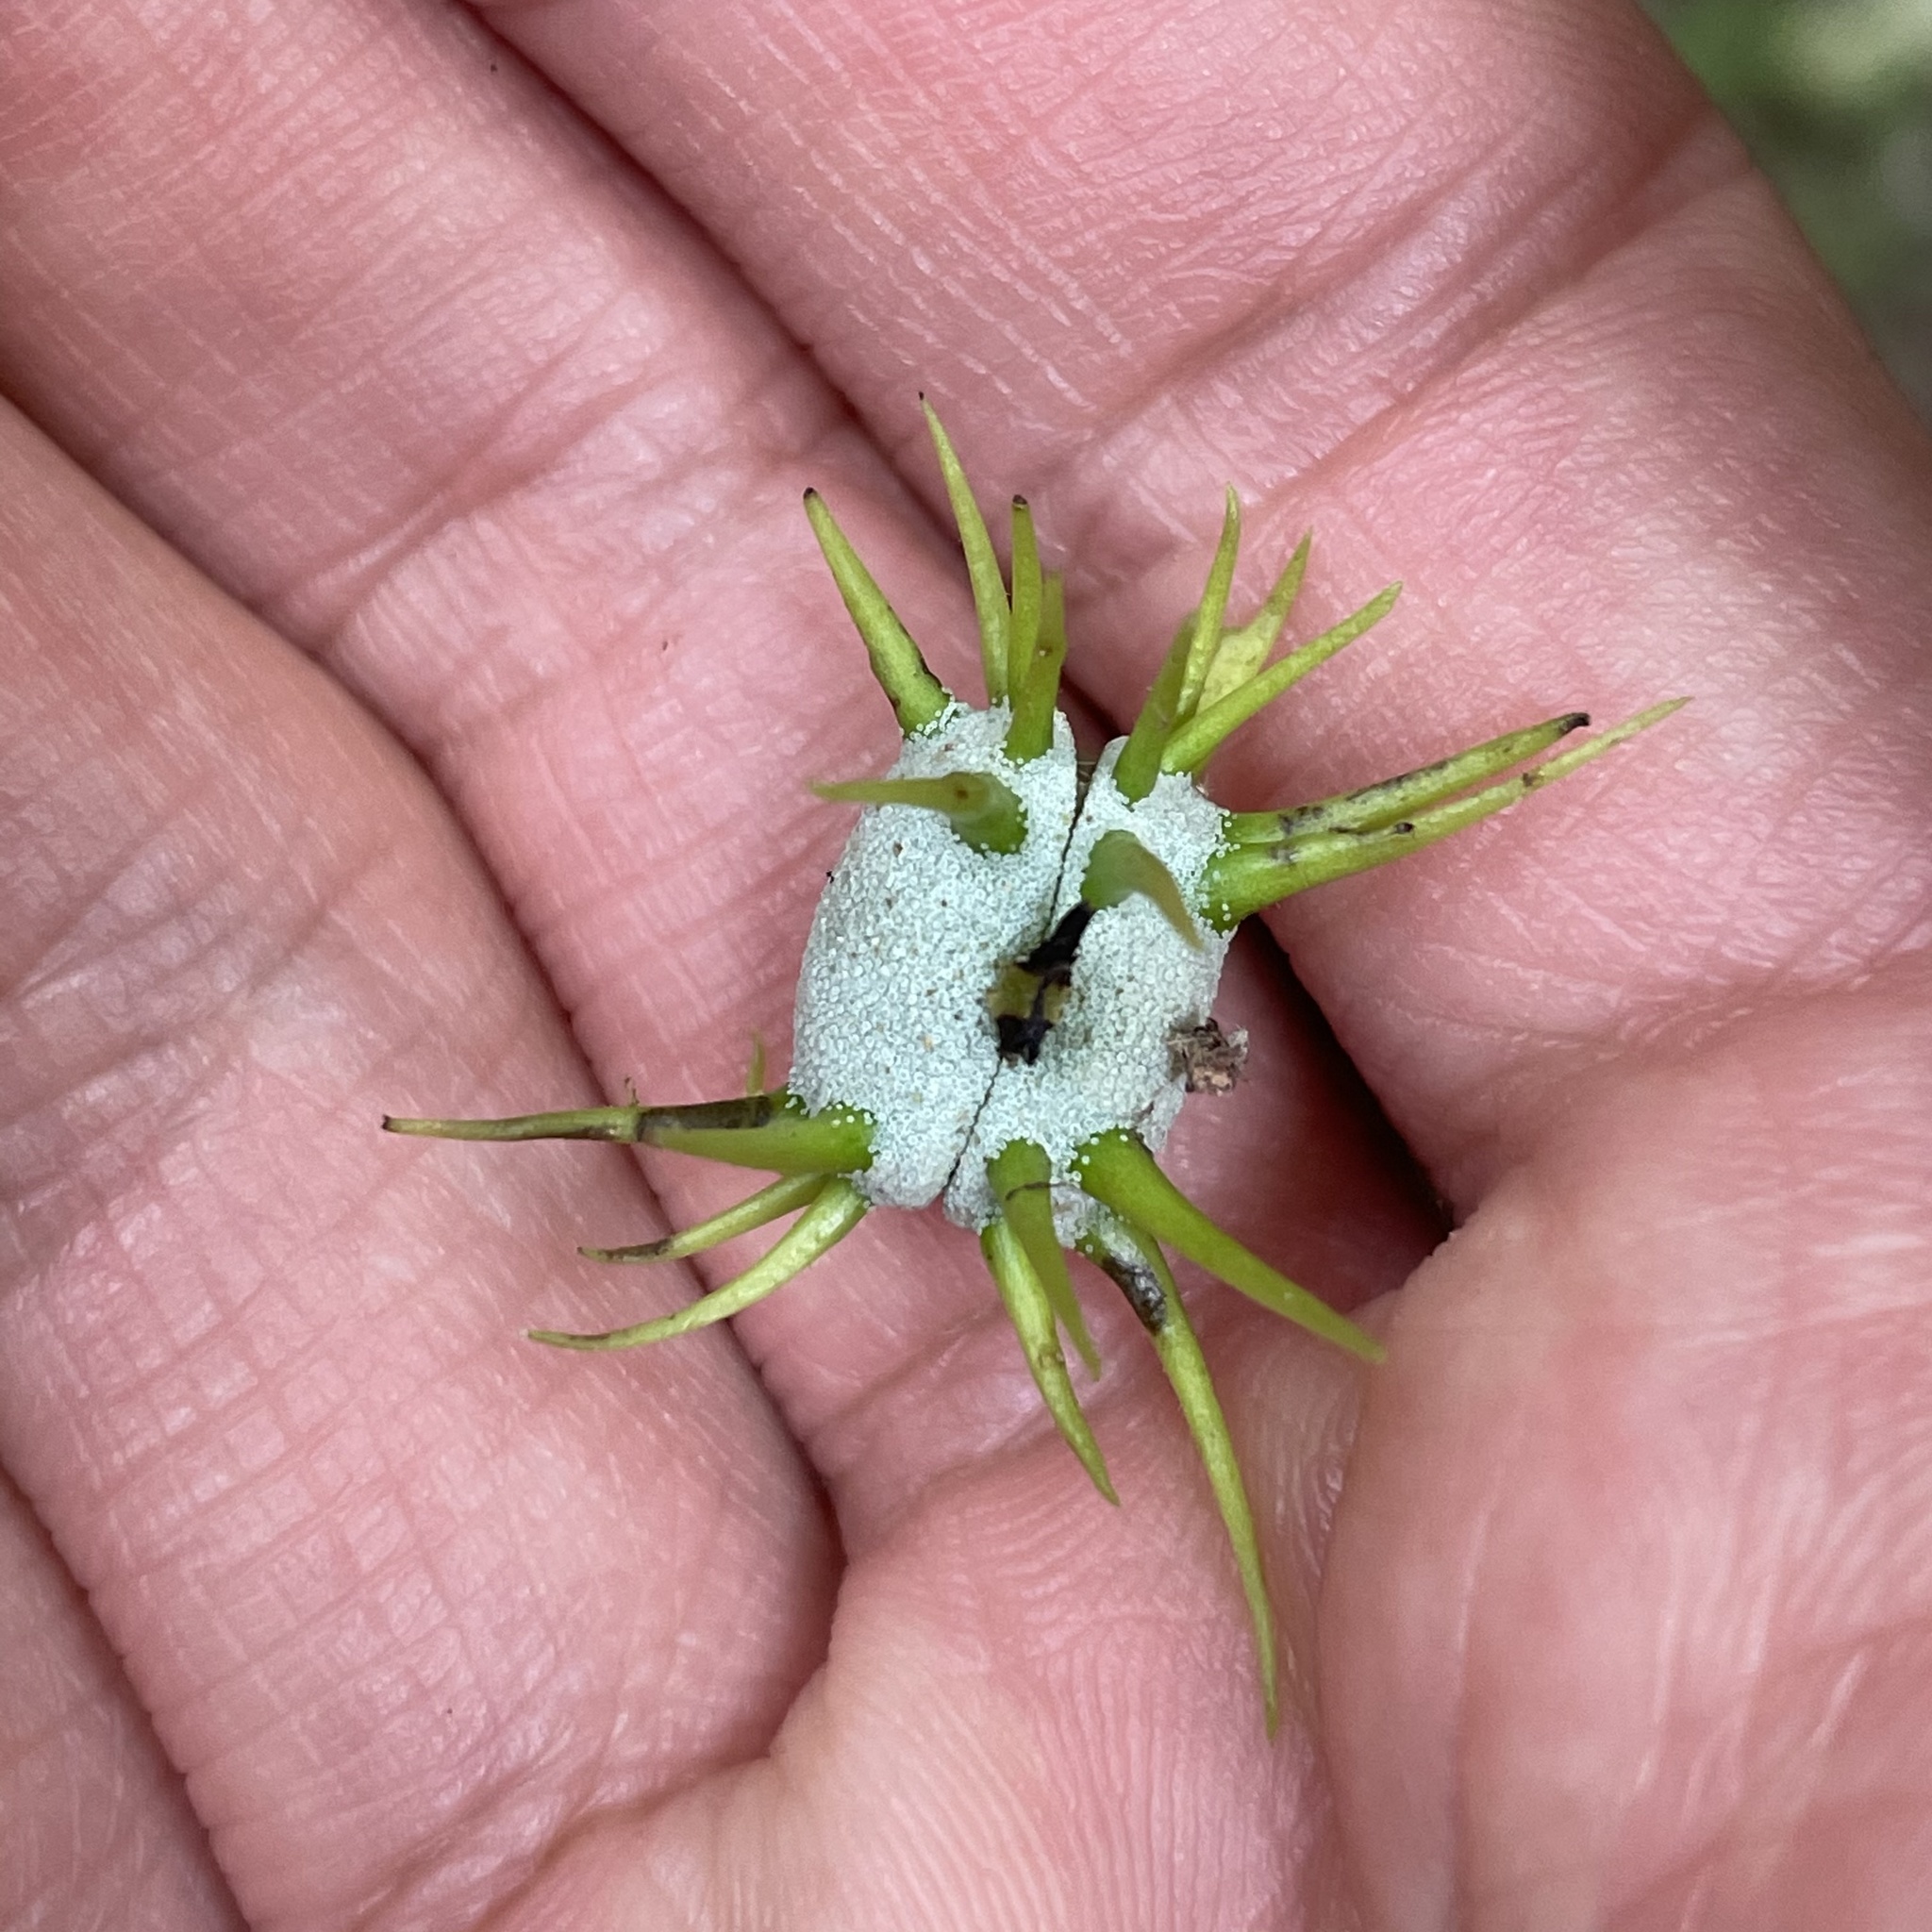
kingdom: Plantae
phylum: Tracheophyta
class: Magnoliopsida
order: Malpighiales
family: Euphorbiaceae
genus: Macaranga
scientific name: Macaranga tanarius
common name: Parasol leaf tree
